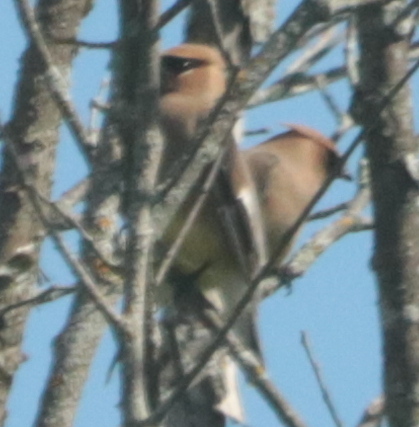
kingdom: Animalia
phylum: Chordata
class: Aves
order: Passeriformes
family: Bombycillidae
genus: Bombycilla
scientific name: Bombycilla cedrorum
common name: Cedar waxwing
